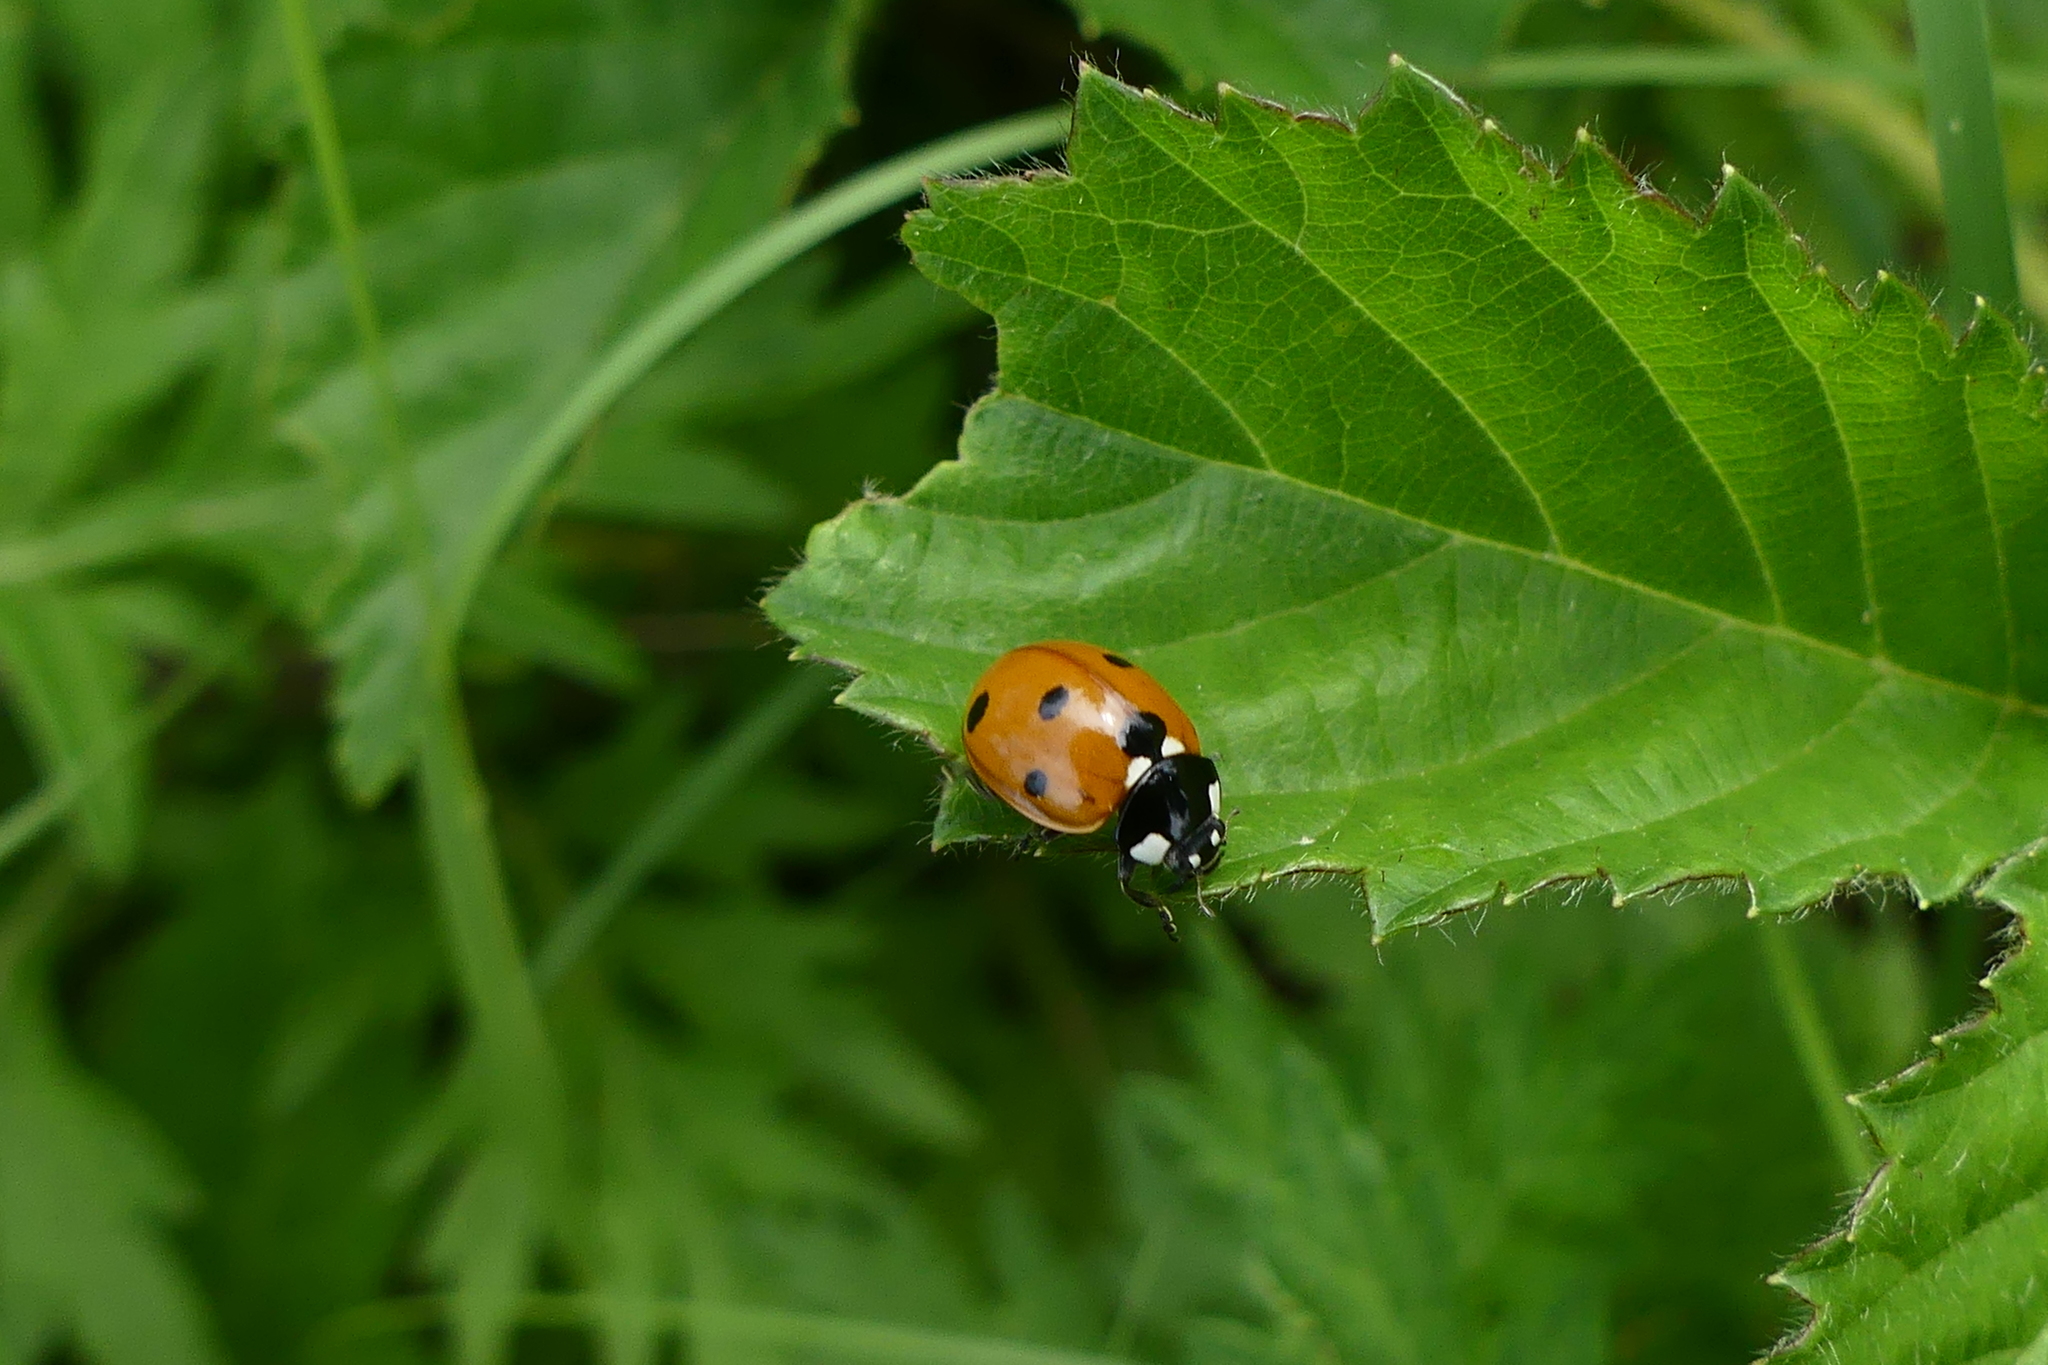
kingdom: Animalia
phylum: Arthropoda
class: Insecta
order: Coleoptera
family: Coccinellidae
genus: Coccinella
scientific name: Coccinella septempunctata
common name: Sevenspotted lady beetle
